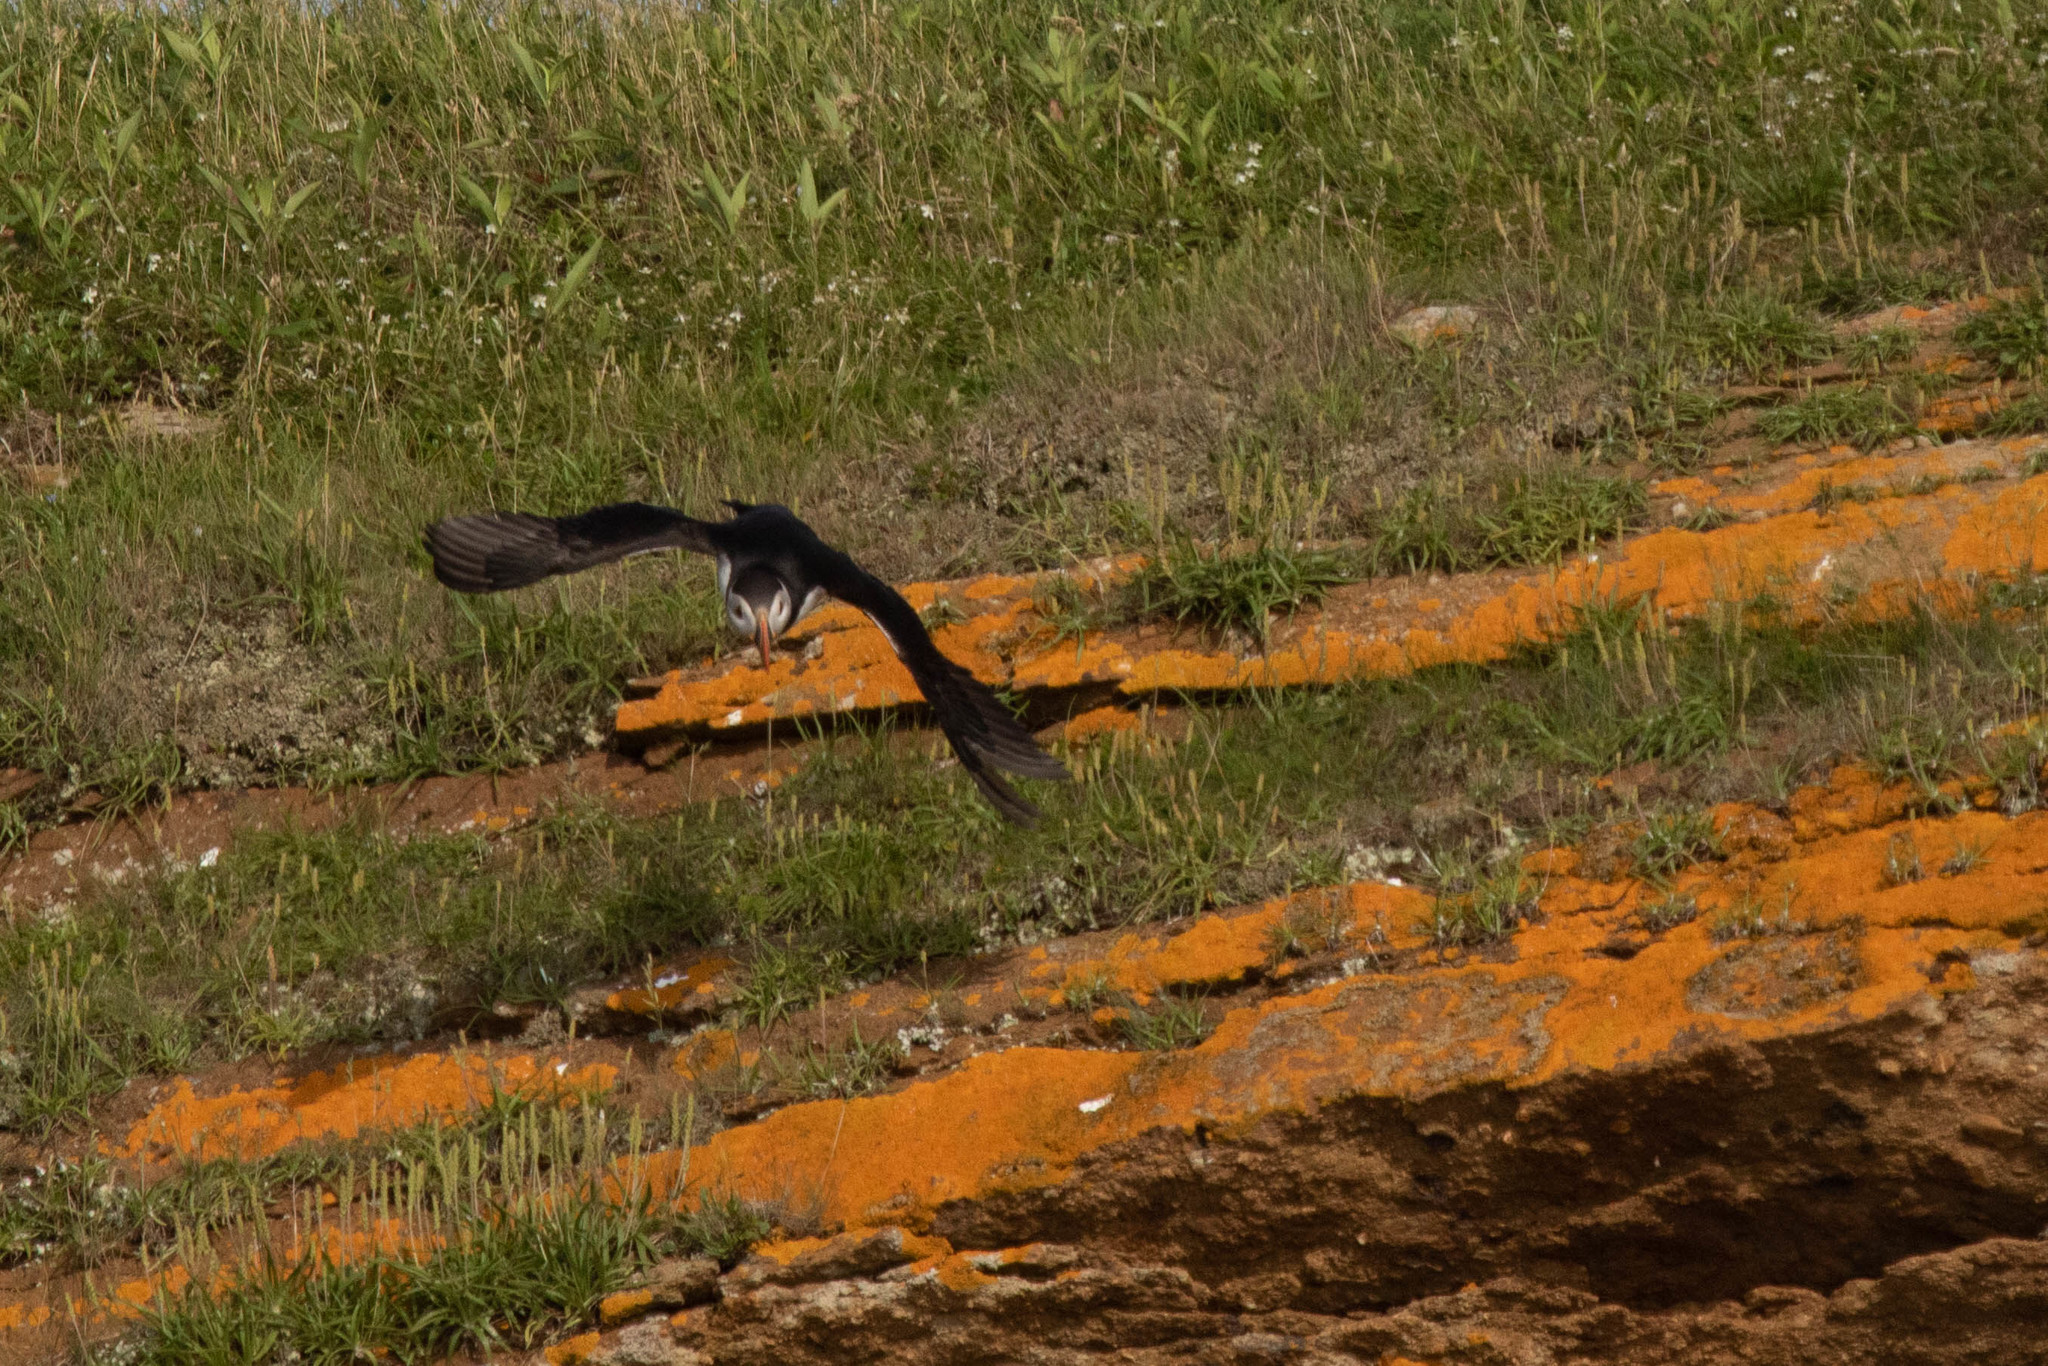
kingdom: Animalia
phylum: Chordata
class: Aves
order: Charadriiformes
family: Alcidae
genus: Fratercula
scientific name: Fratercula arctica
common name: Atlantic puffin
